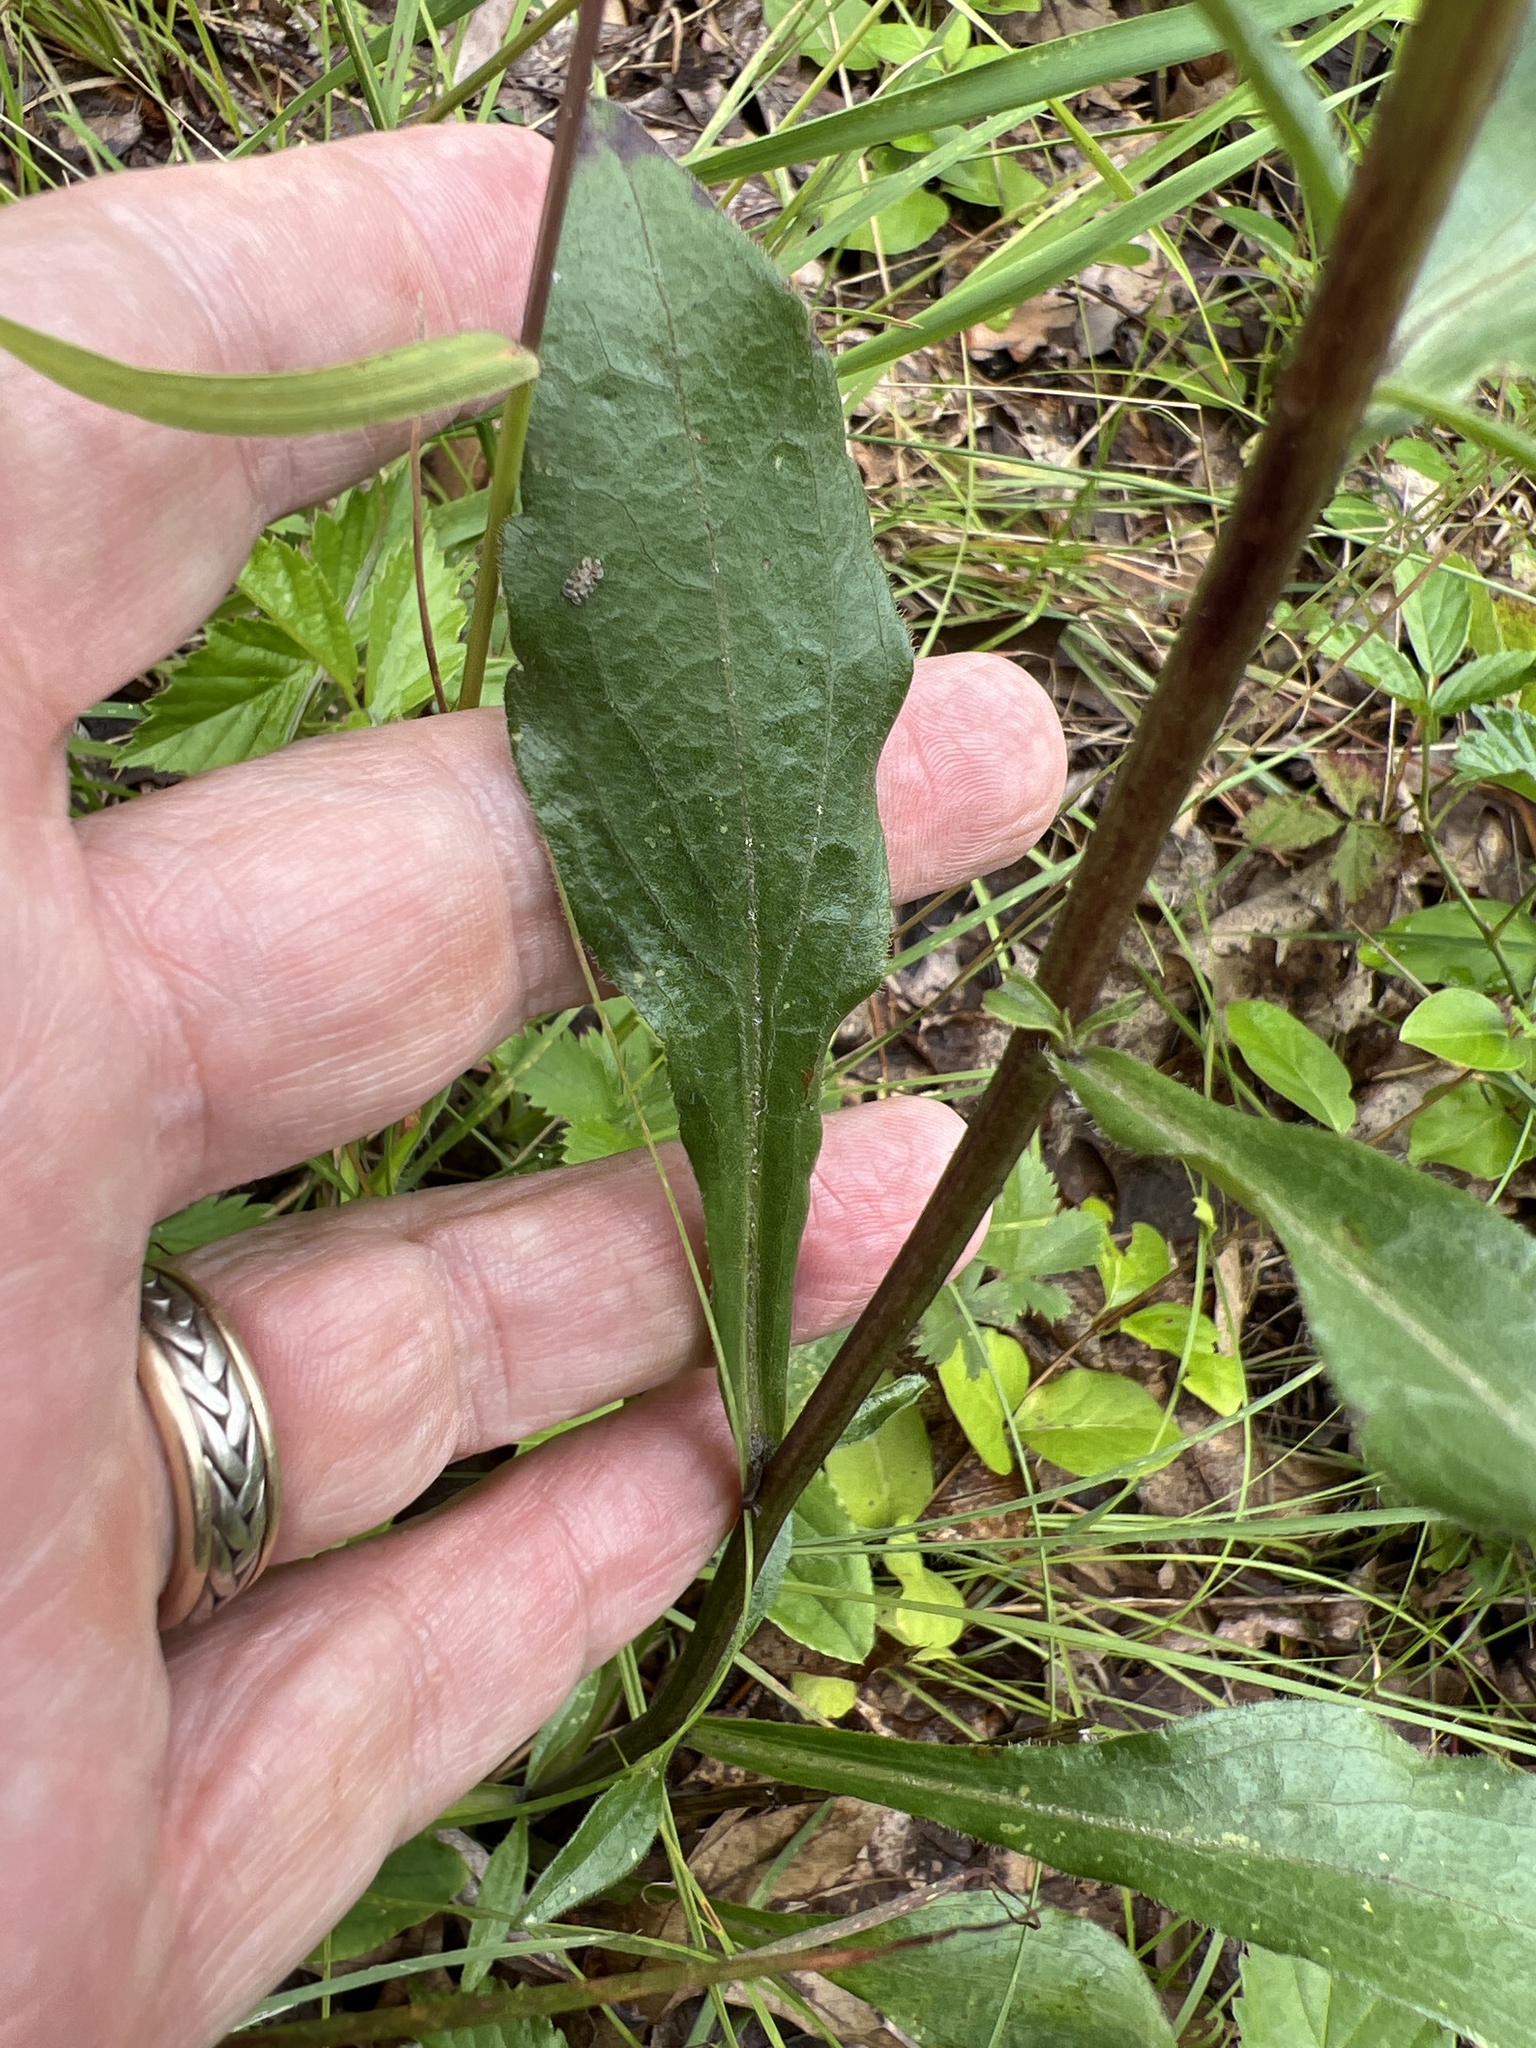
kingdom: Plantae
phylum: Tracheophyta
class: Magnoliopsida
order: Asterales
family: Asteraceae
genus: Sericocarpus
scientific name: Sericocarpus asteroides
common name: Toothed white-top aster
